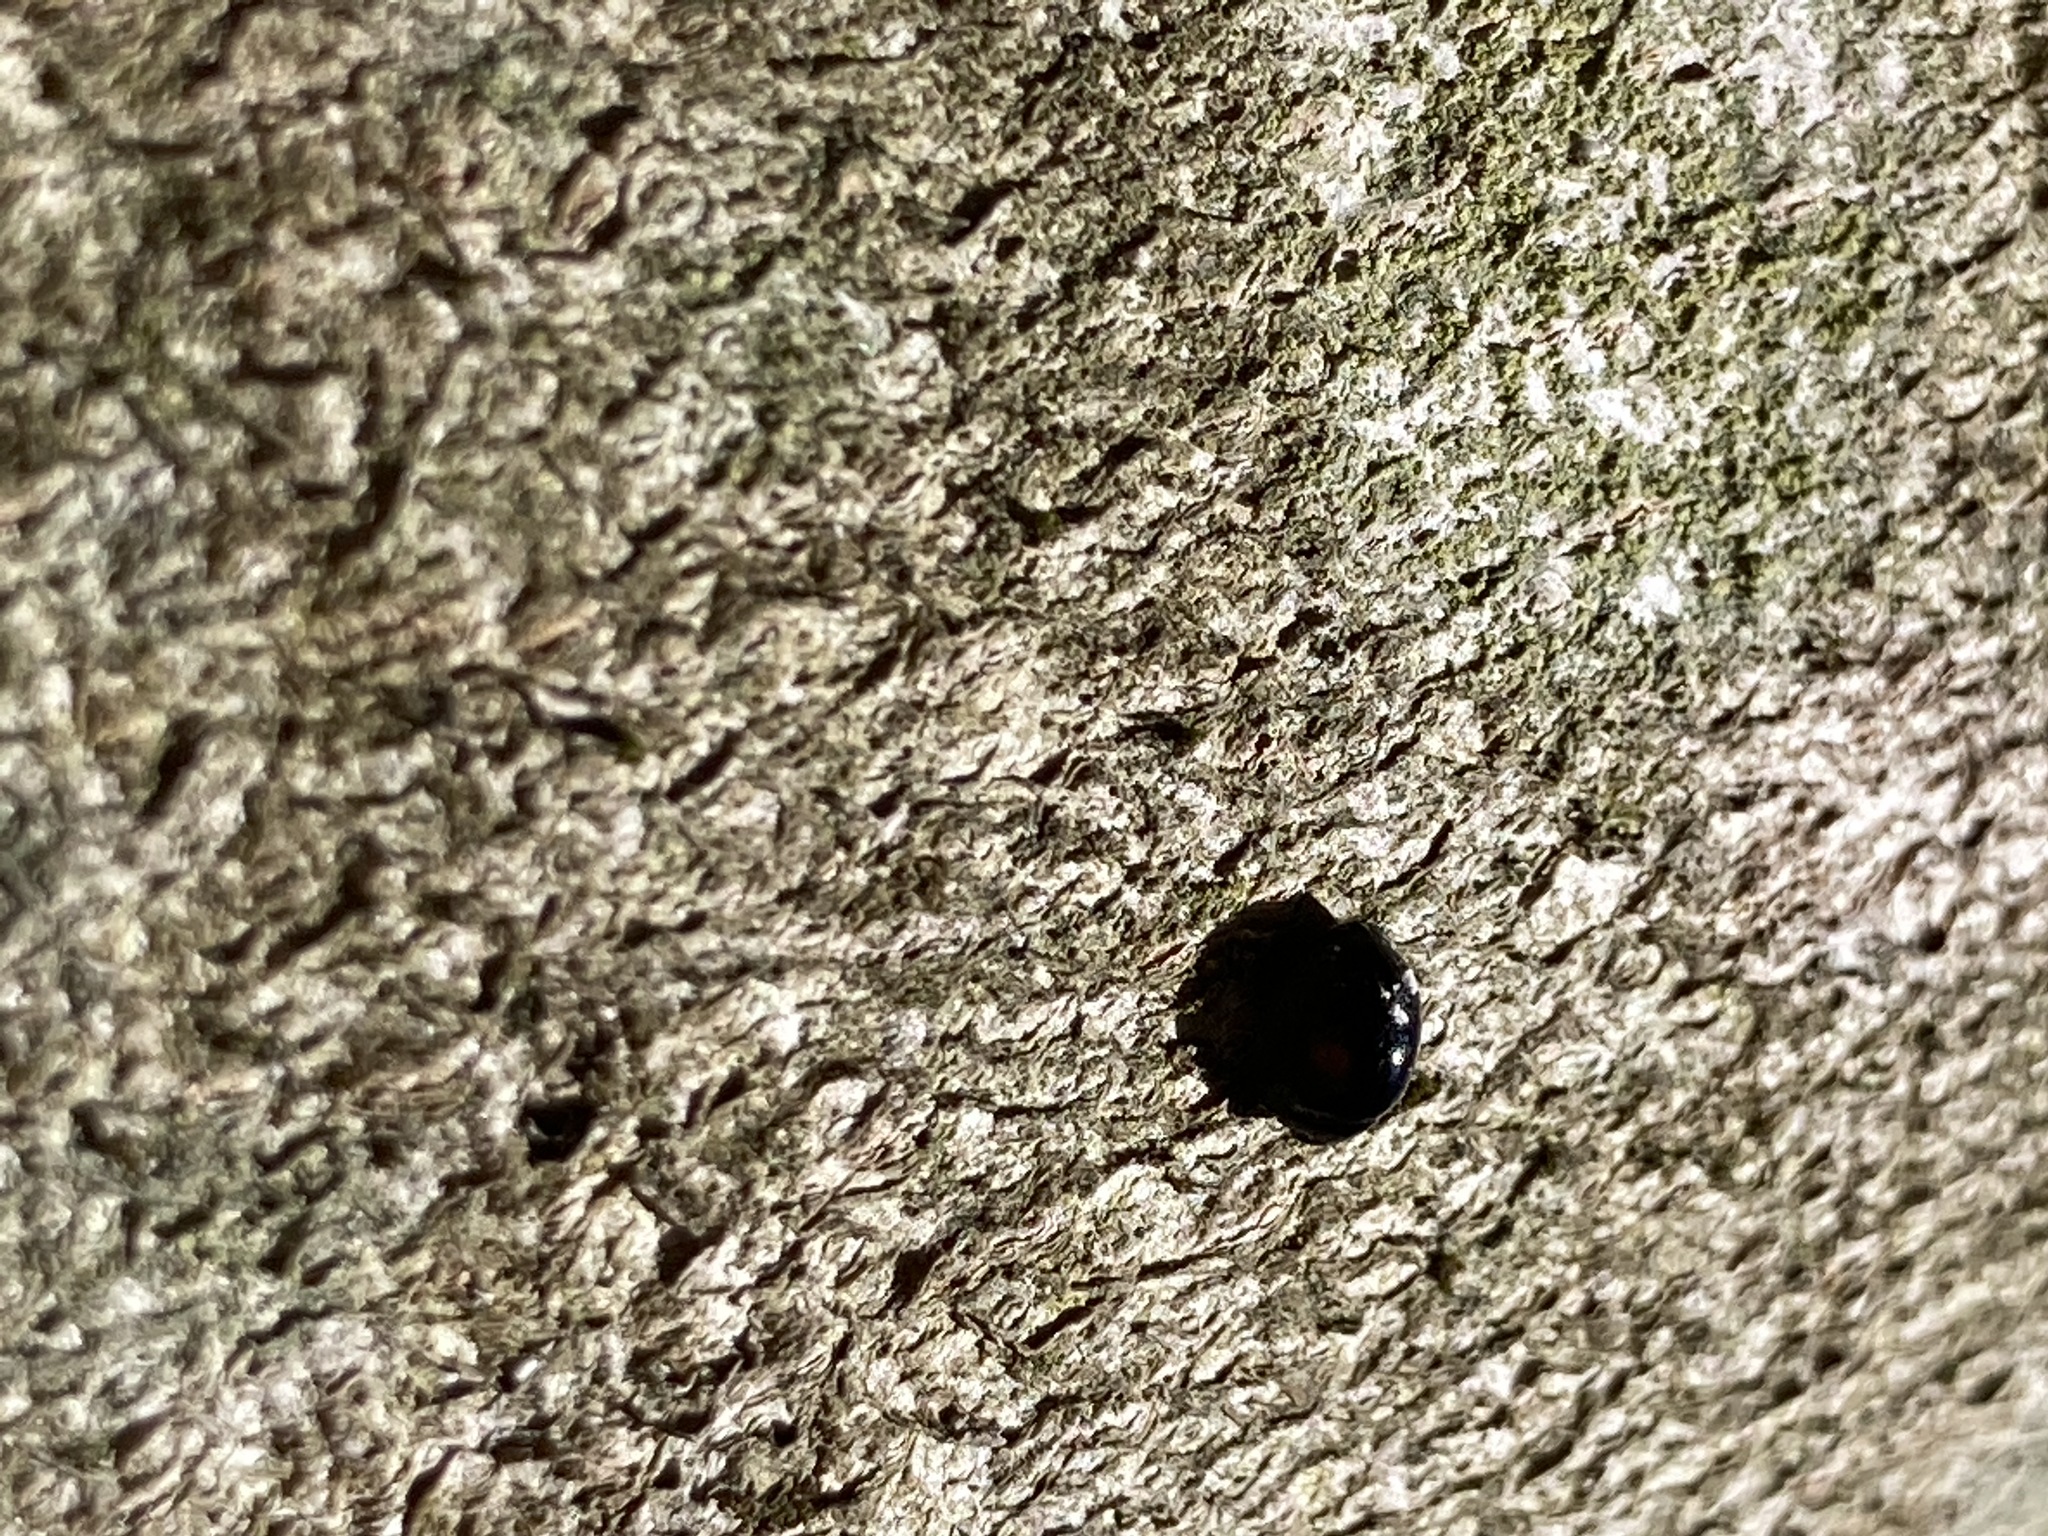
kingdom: Animalia
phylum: Arthropoda
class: Insecta
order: Coleoptera
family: Coccinellidae
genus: Chilocorus
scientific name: Chilocorus stigma
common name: Twicestabbed lady beetle
